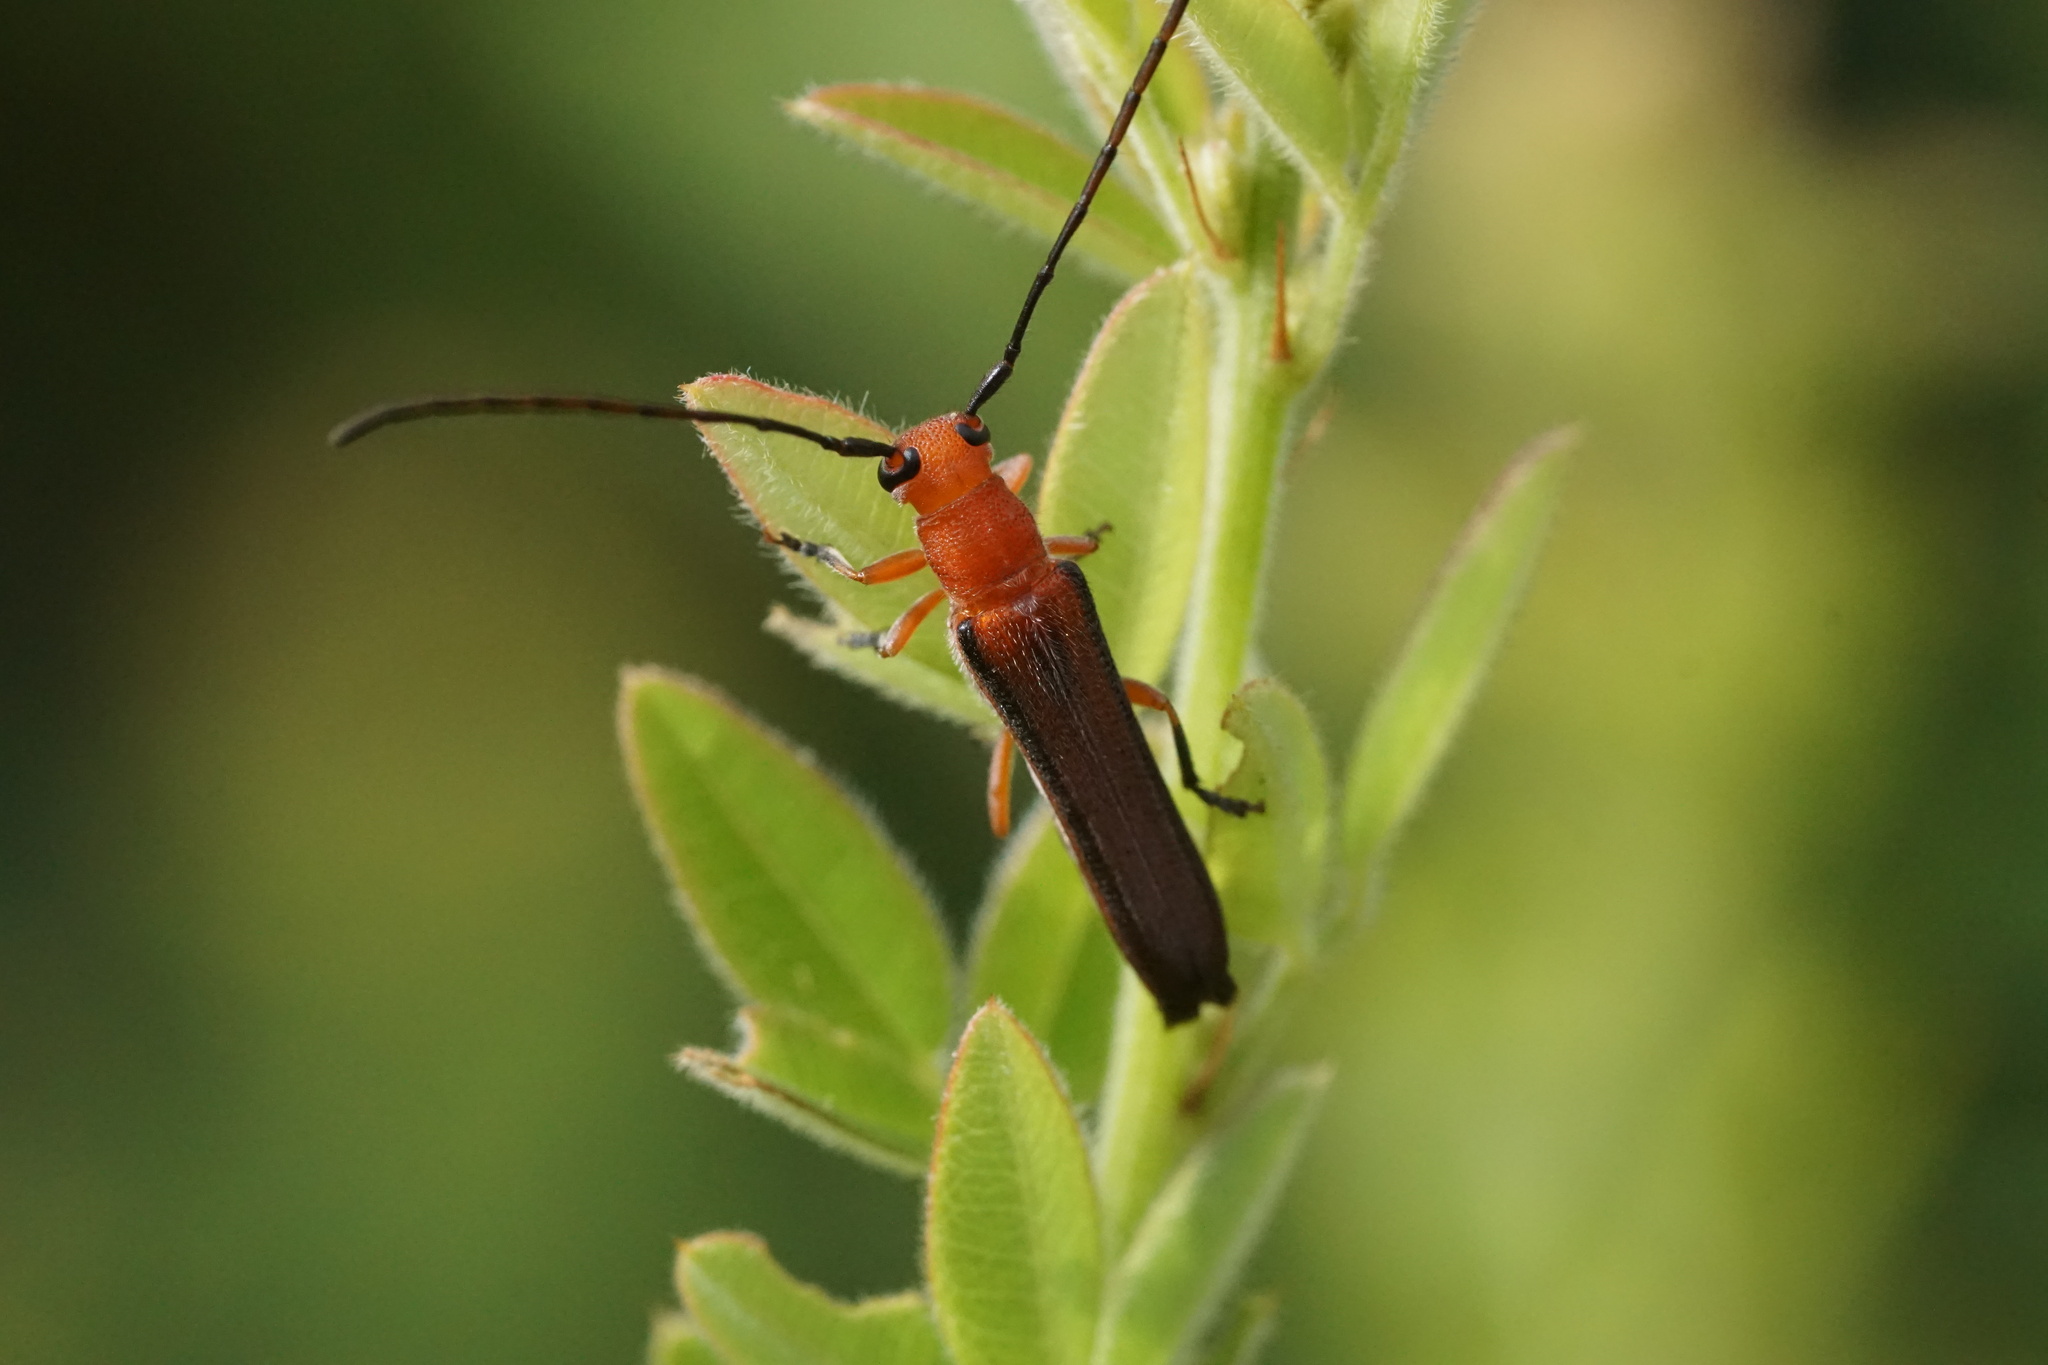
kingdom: Animalia
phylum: Arthropoda
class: Insecta
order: Coleoptera
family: Cerambycidae
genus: Oberea
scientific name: Oberea ruficollis
